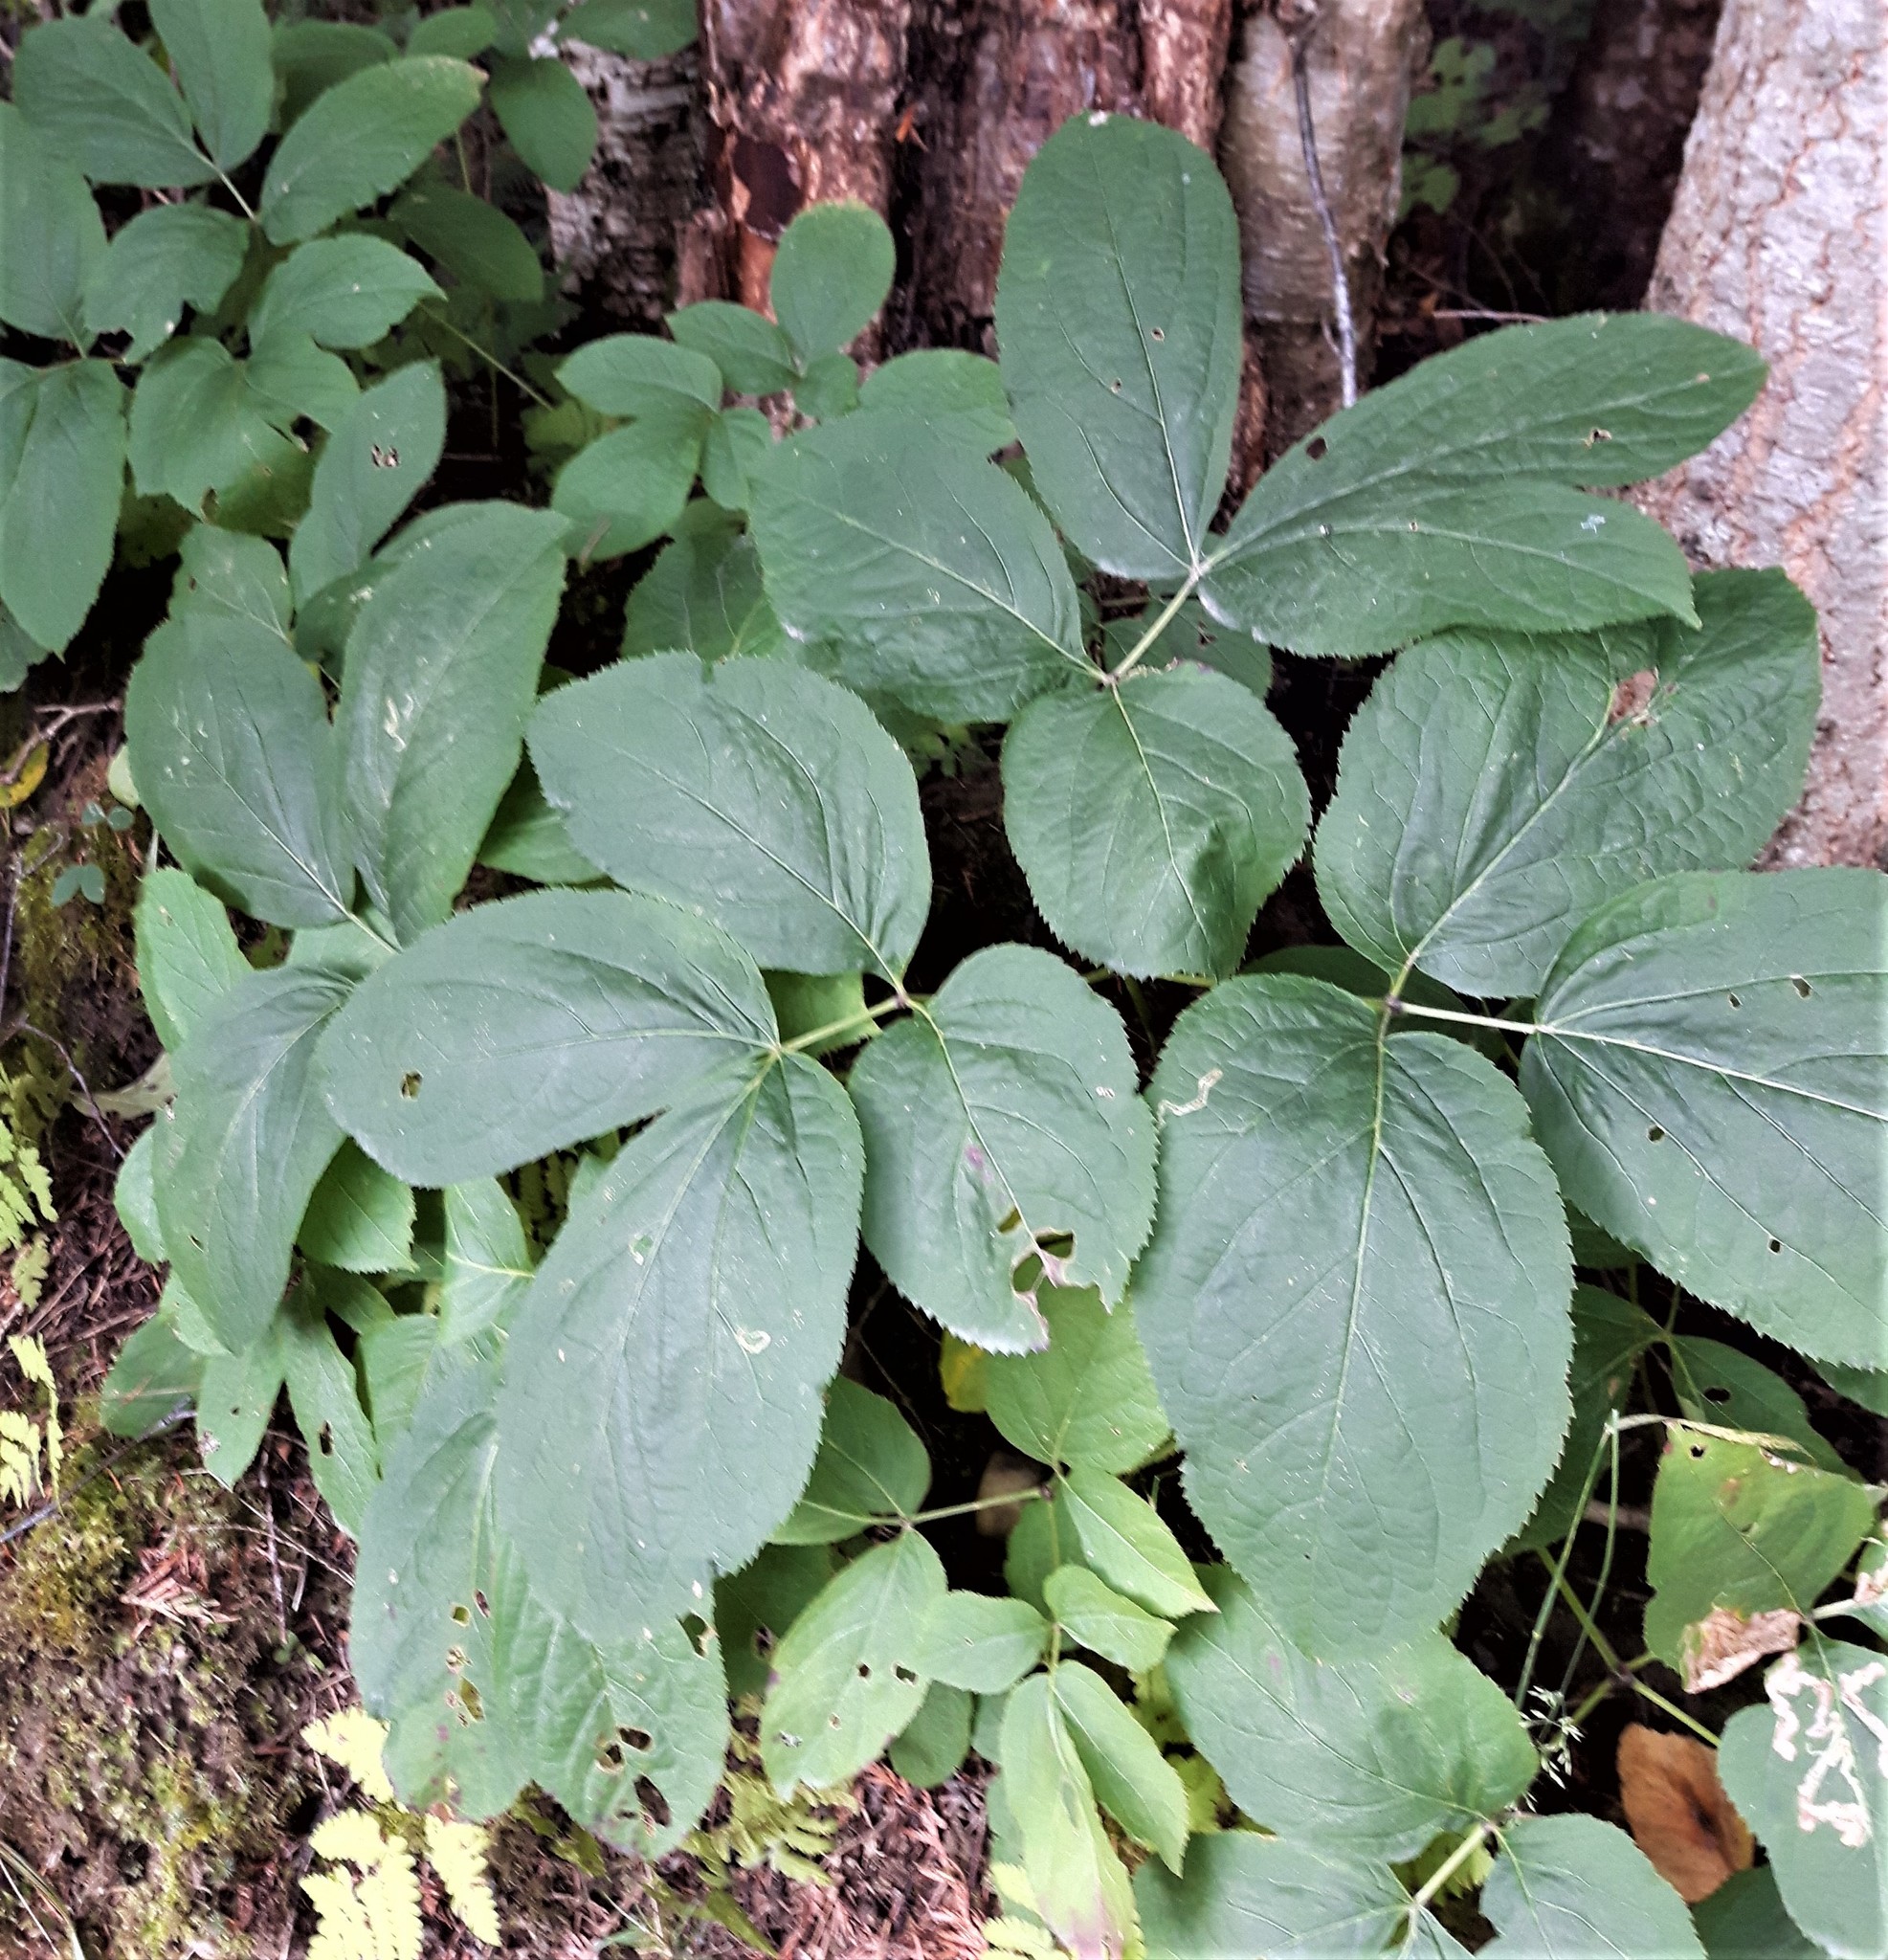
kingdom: Plantae
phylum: Tracheophyta
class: Magnoliopsida
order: Apiales
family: Araliaceae
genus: Aralia
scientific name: Aralia nudicaulis
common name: Wild sarsaparilla
